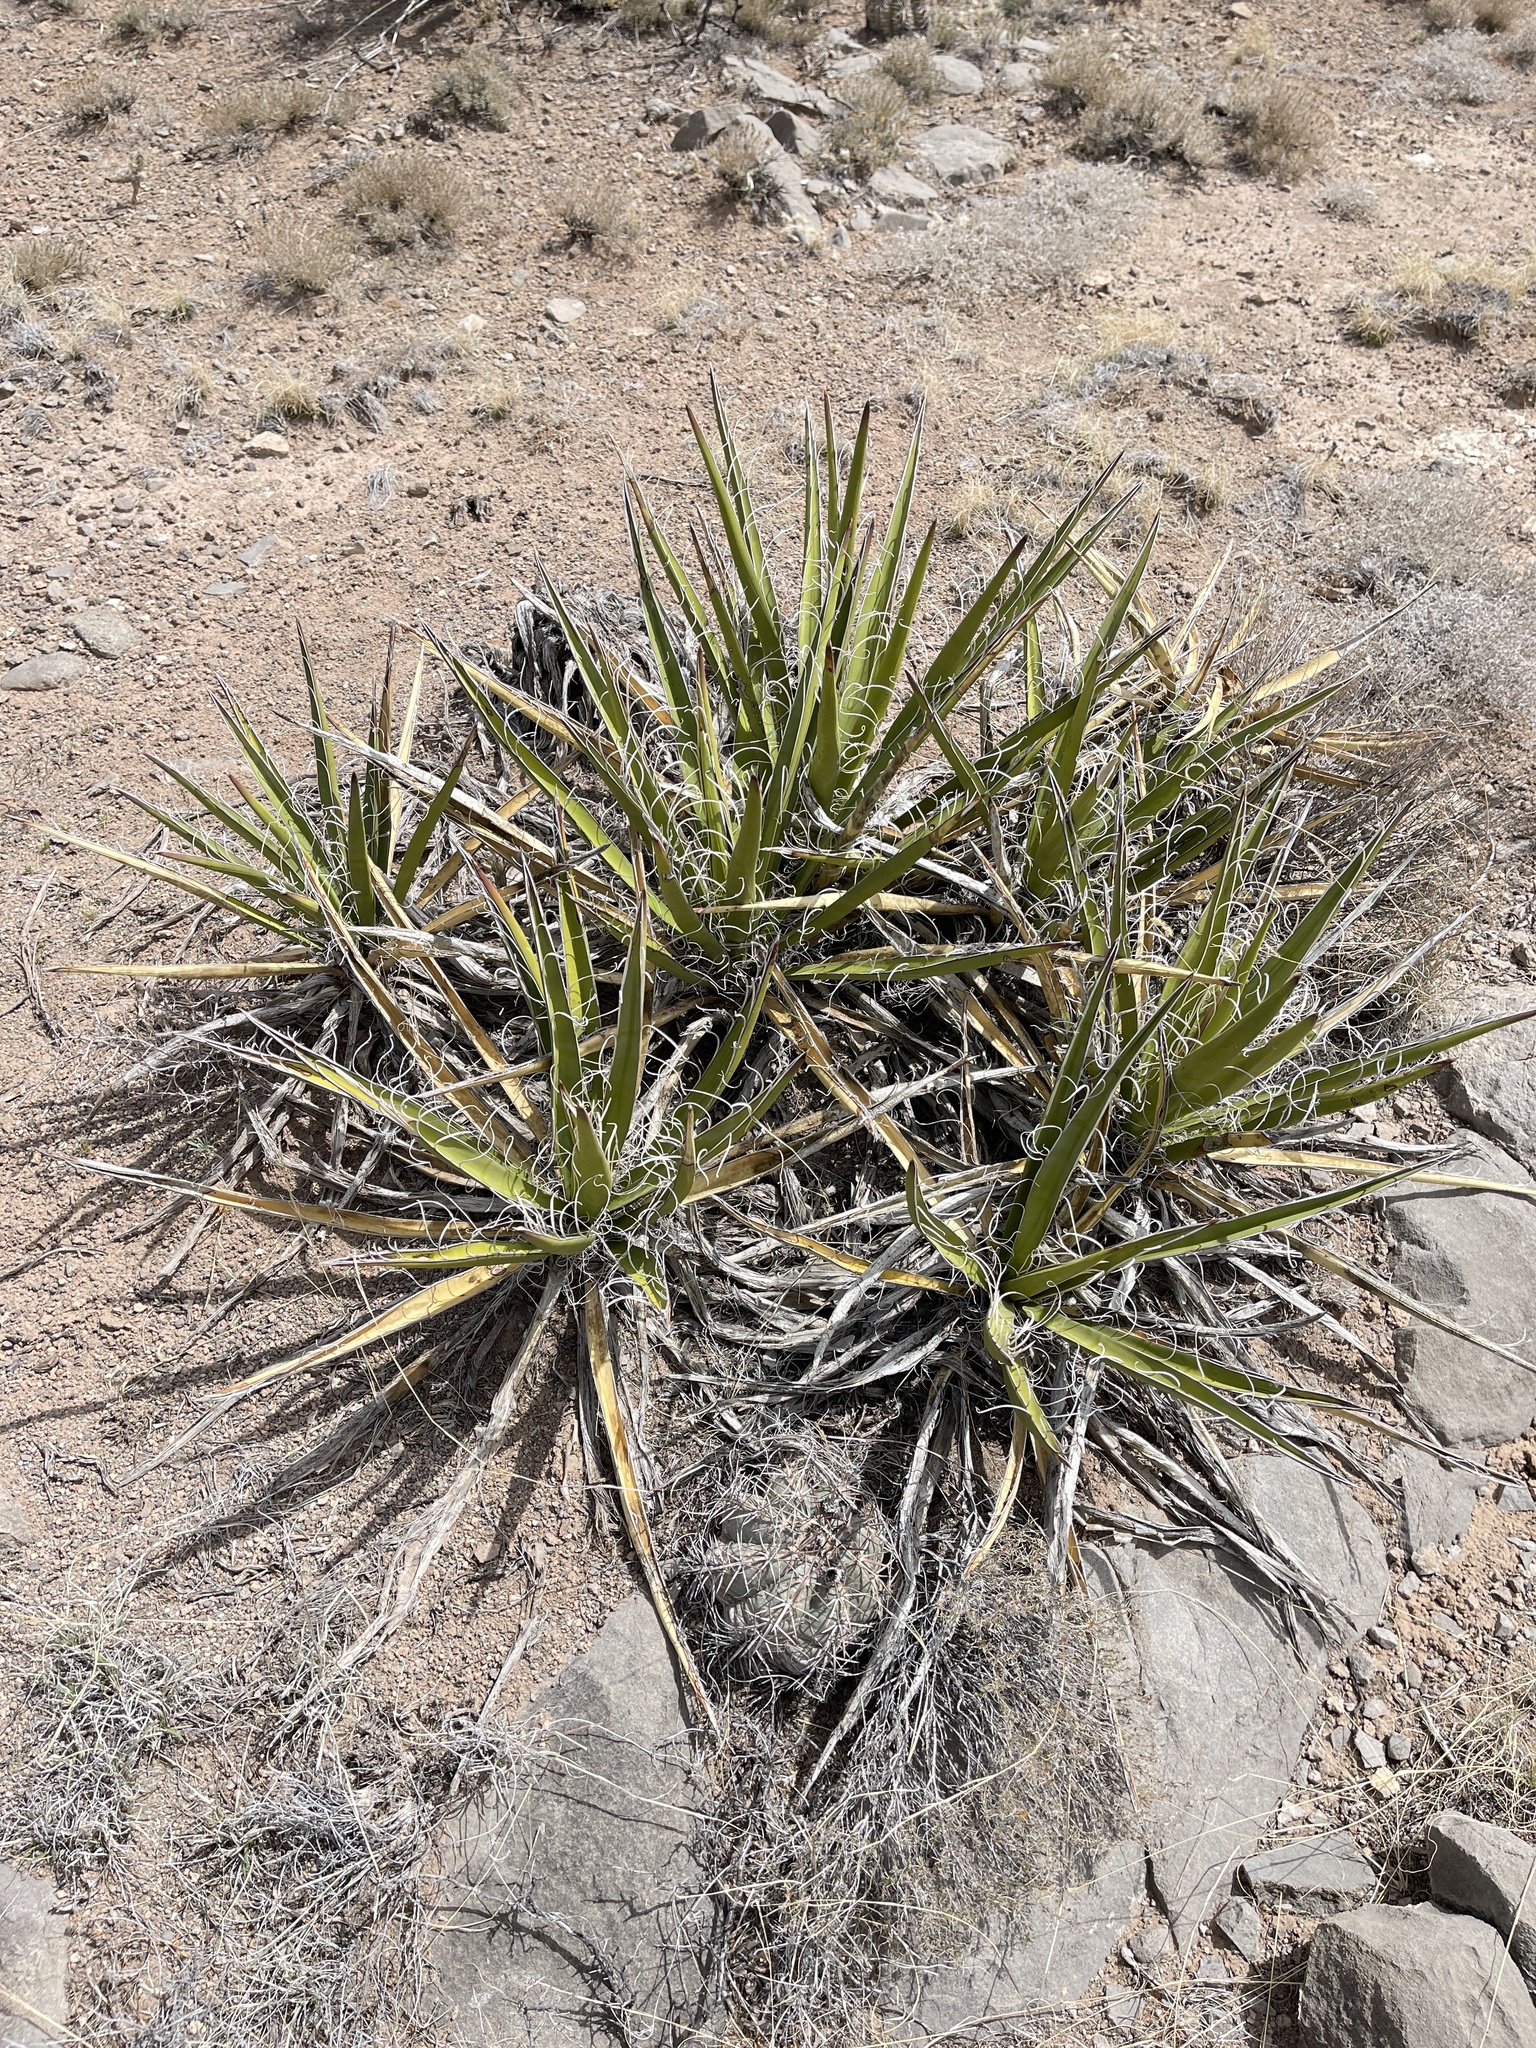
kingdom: Plantae
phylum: Tracheophyta
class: Liliopsida
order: Asparagales
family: Asparagaceae
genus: Yucca
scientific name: Yucca baccata
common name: Banana yucca
